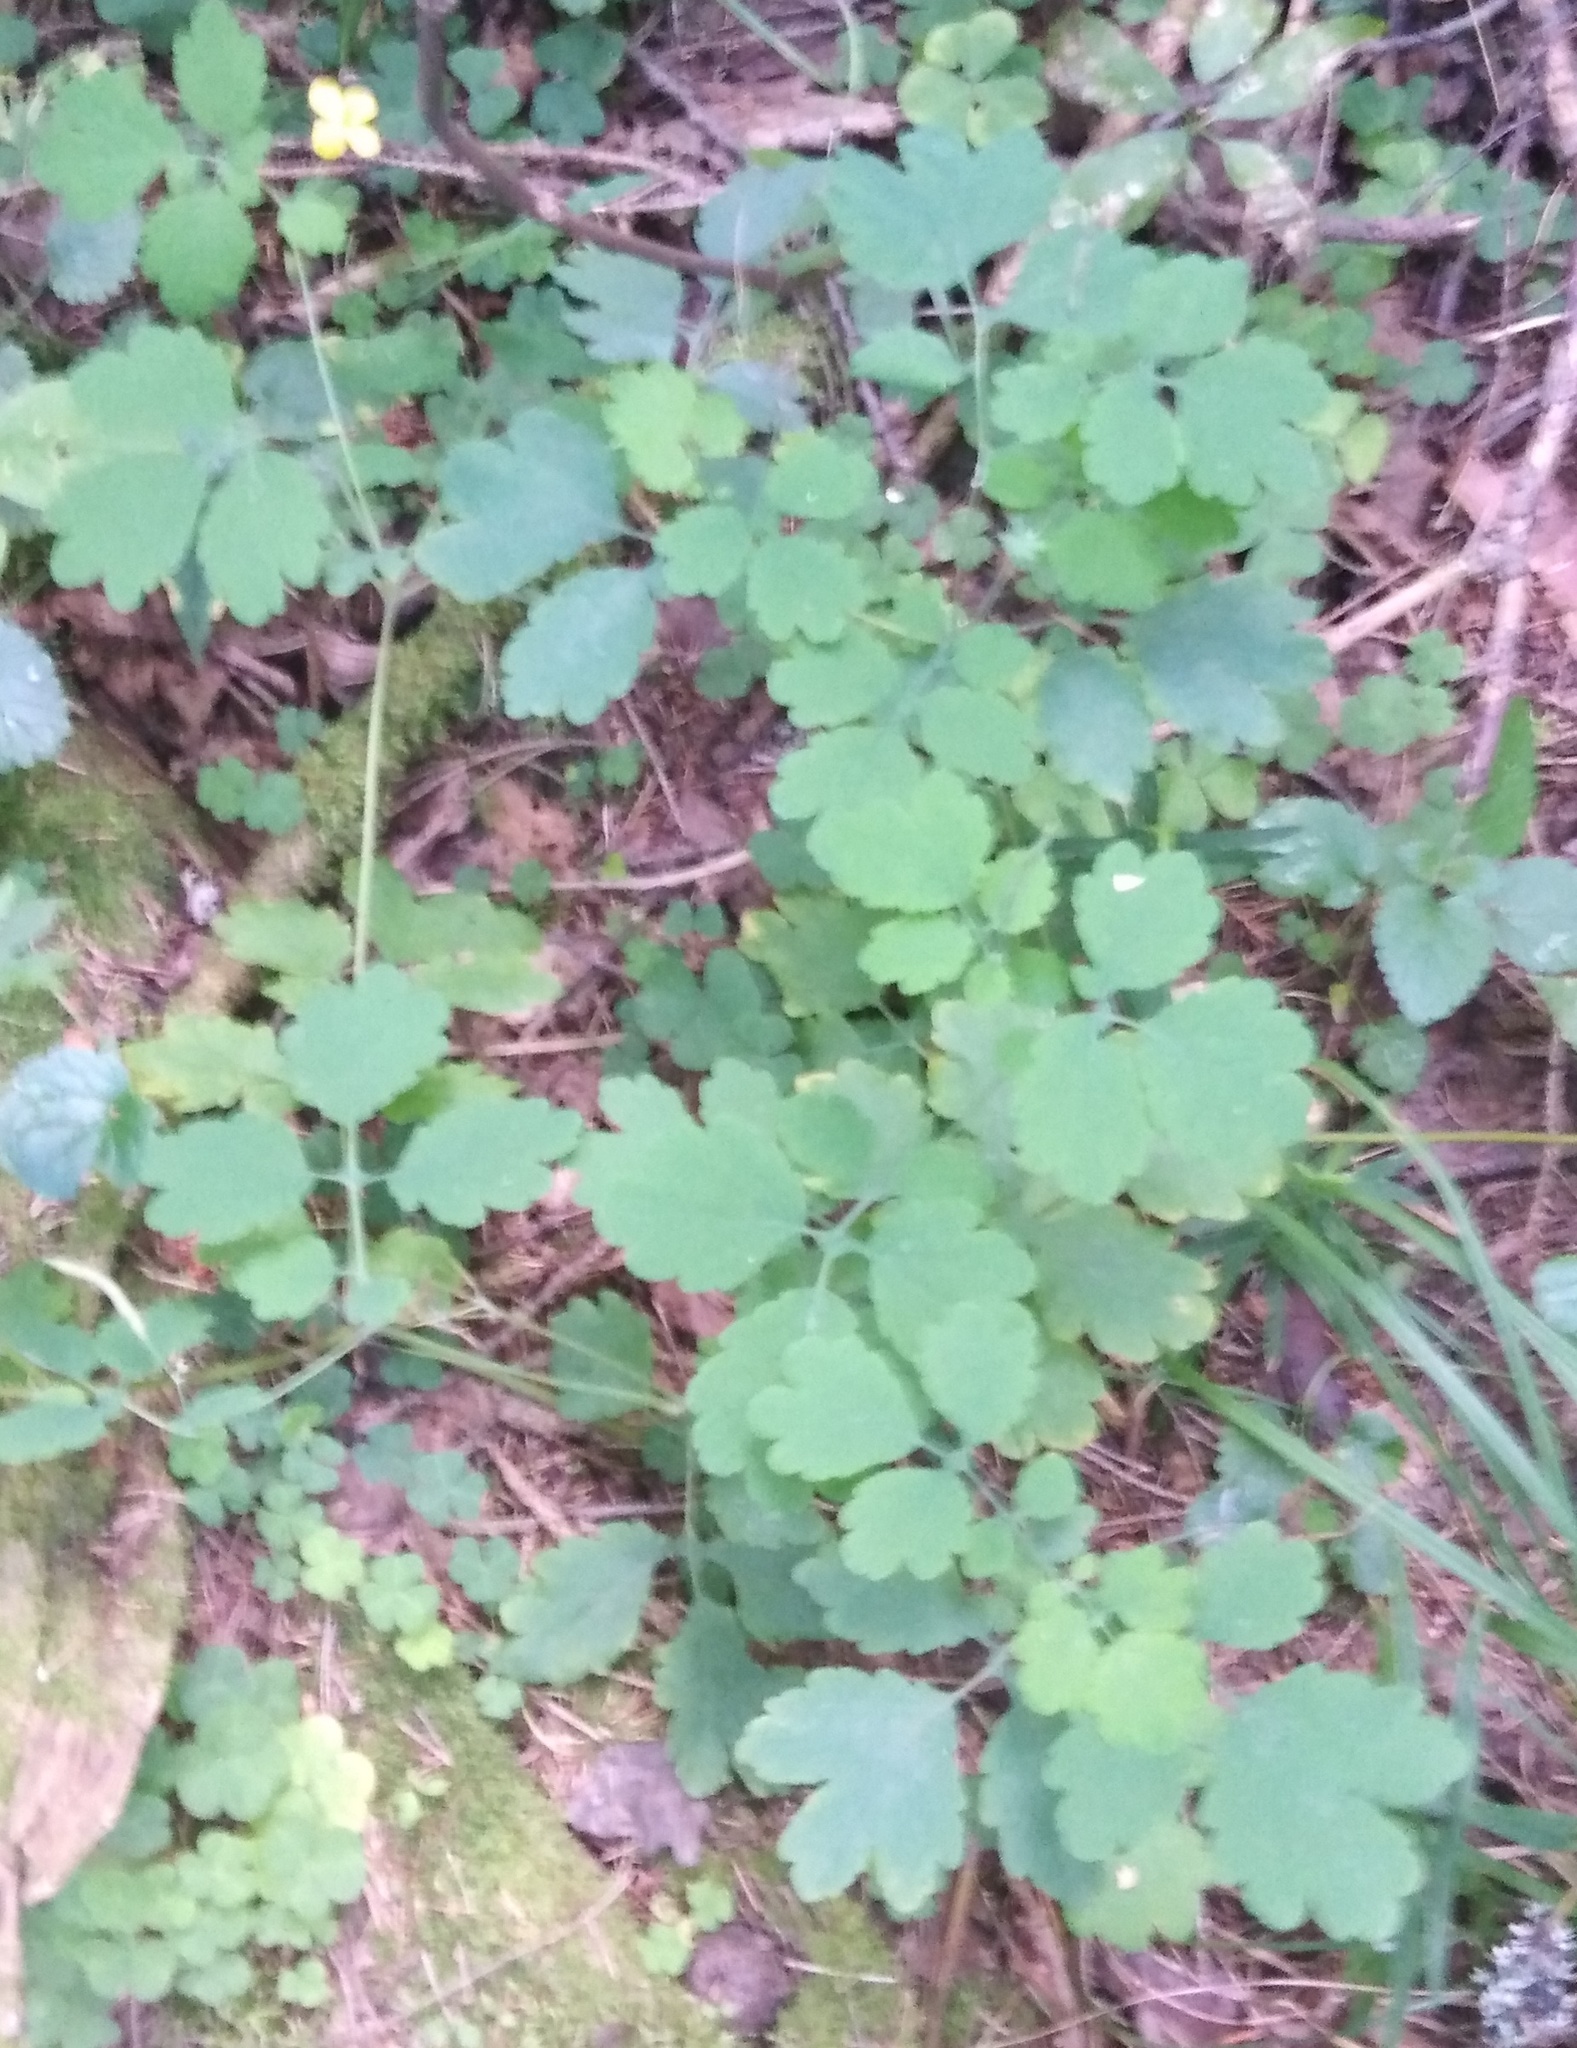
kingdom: Plantae
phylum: Tracheophyta
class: Magnoliopsida
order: Ranunculales
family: Papaveraceae
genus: Chelidonium
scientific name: Chelidonium majus
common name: Greater celandine
